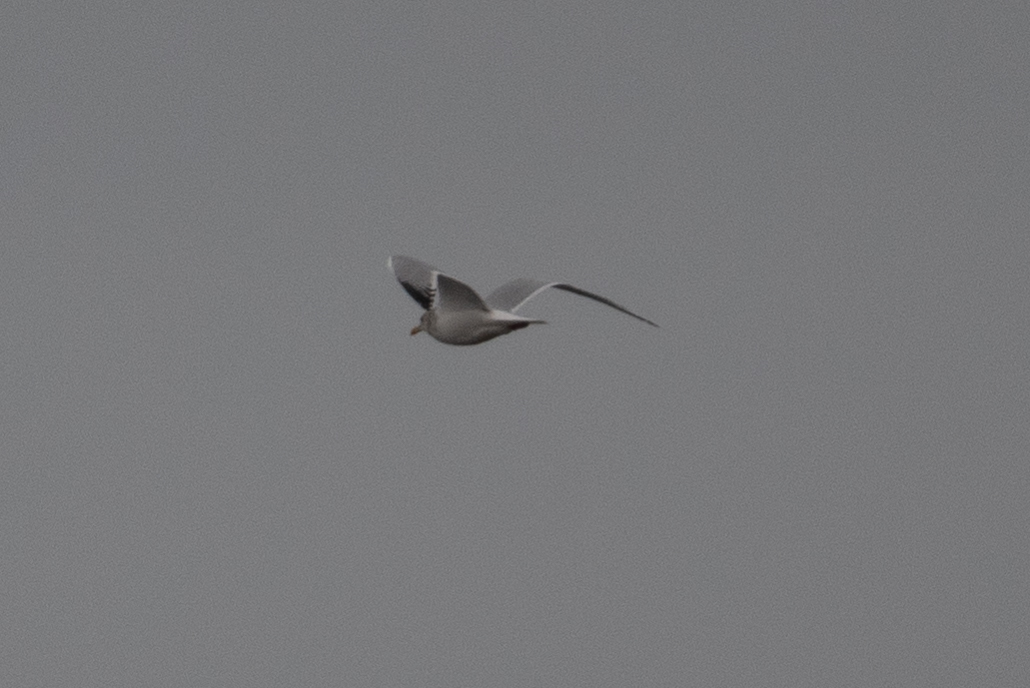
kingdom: Animalia
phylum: Chordata
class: Aves
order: Charadriiformes
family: Laridae
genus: Larus
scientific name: Larus californicus
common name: California gull
